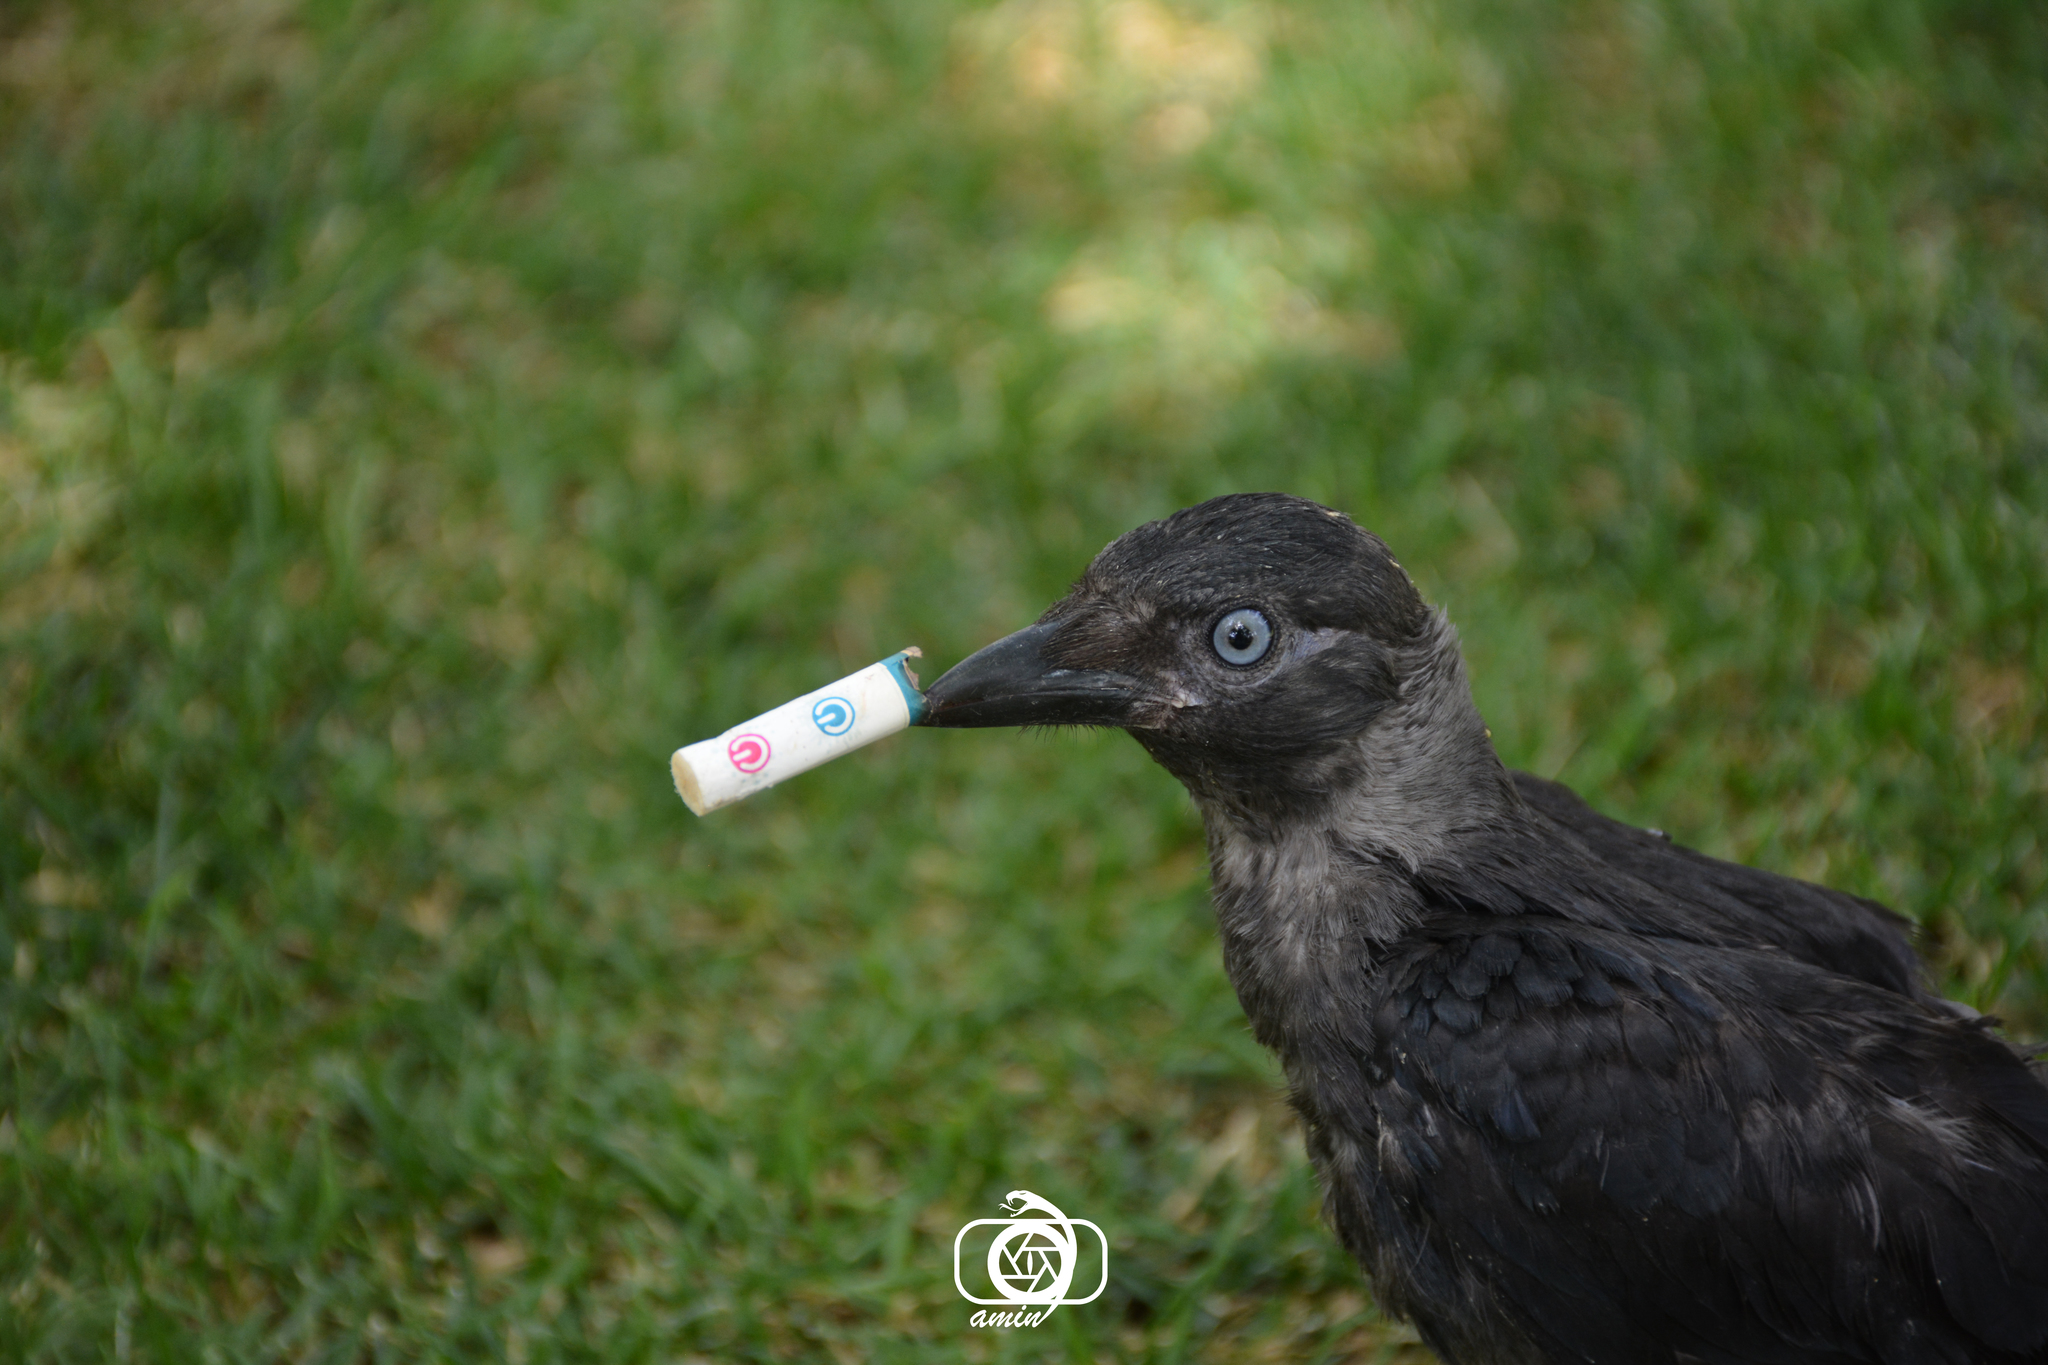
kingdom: Animalia
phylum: Chordata
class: Aves
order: Passeriformes
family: Corvidae
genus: Coloeus
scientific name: Coloeus monedula
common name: Western jackdaw
